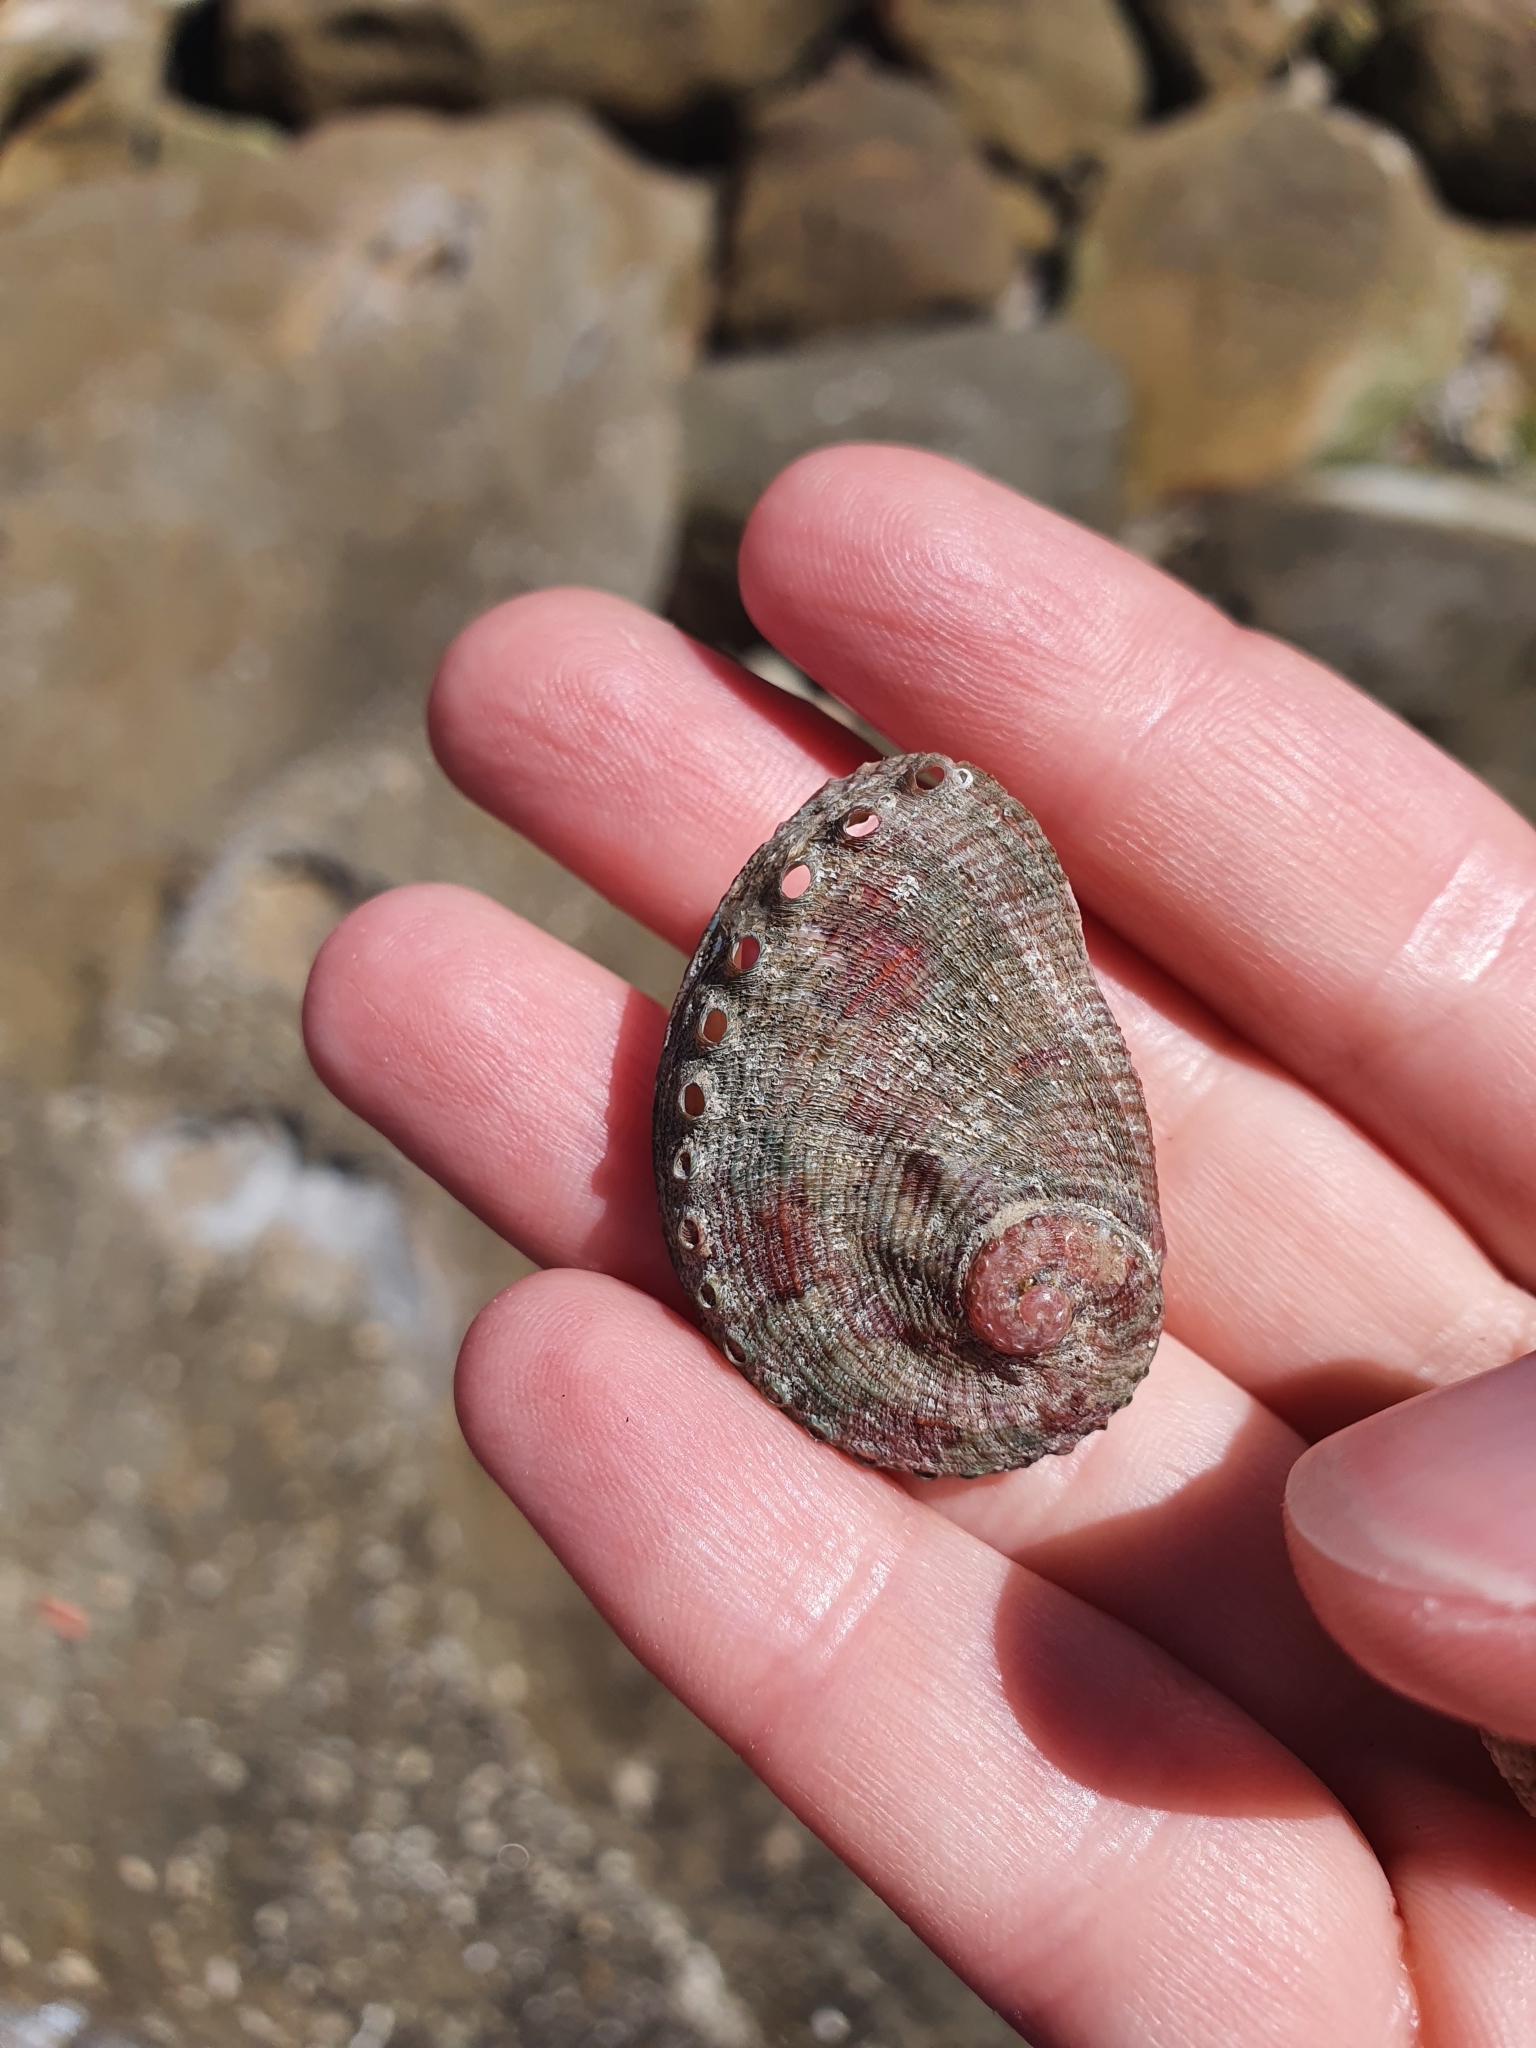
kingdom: Animalia
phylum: Mollusca
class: Gastropoda
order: Lepetellida
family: Haliotidae
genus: Haliotis
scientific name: Haliotis coccoradiata
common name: Reddish-rayed abalone
